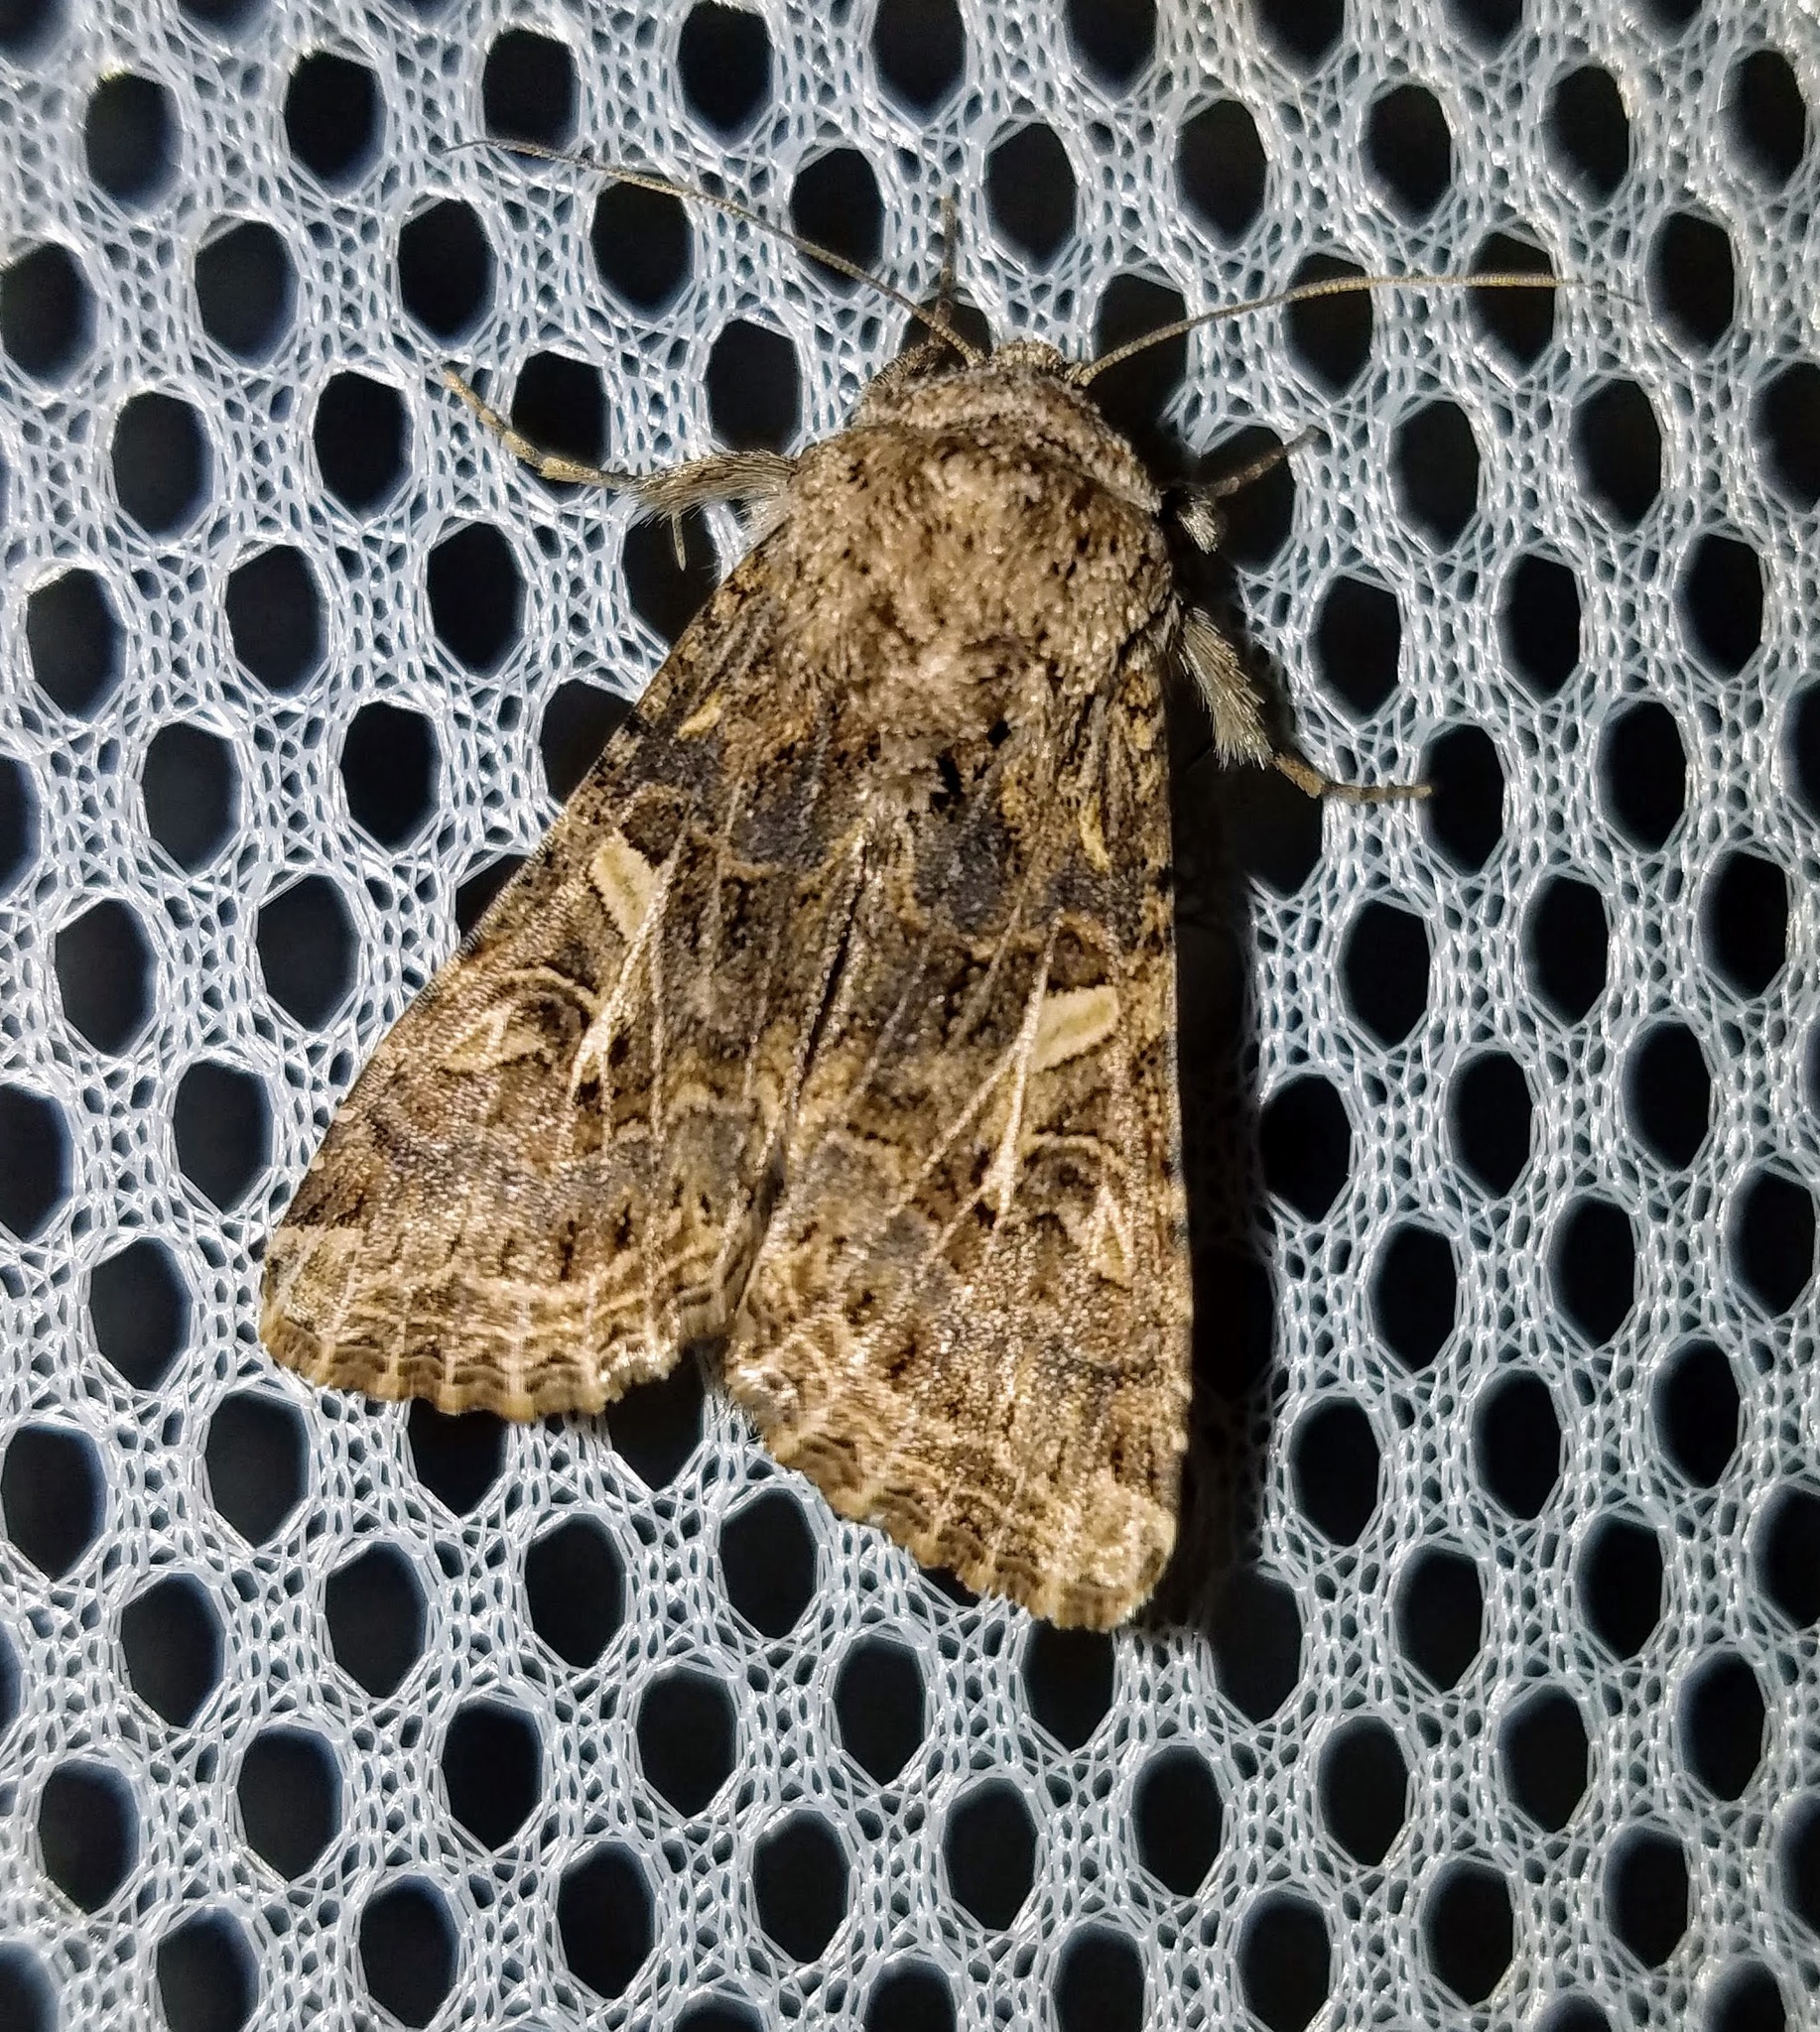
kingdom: Animalia
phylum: Arthropoda
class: Insecta
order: Lepidoptera
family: Noctuidae
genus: Spodoptera
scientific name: Spodoptera praefica
